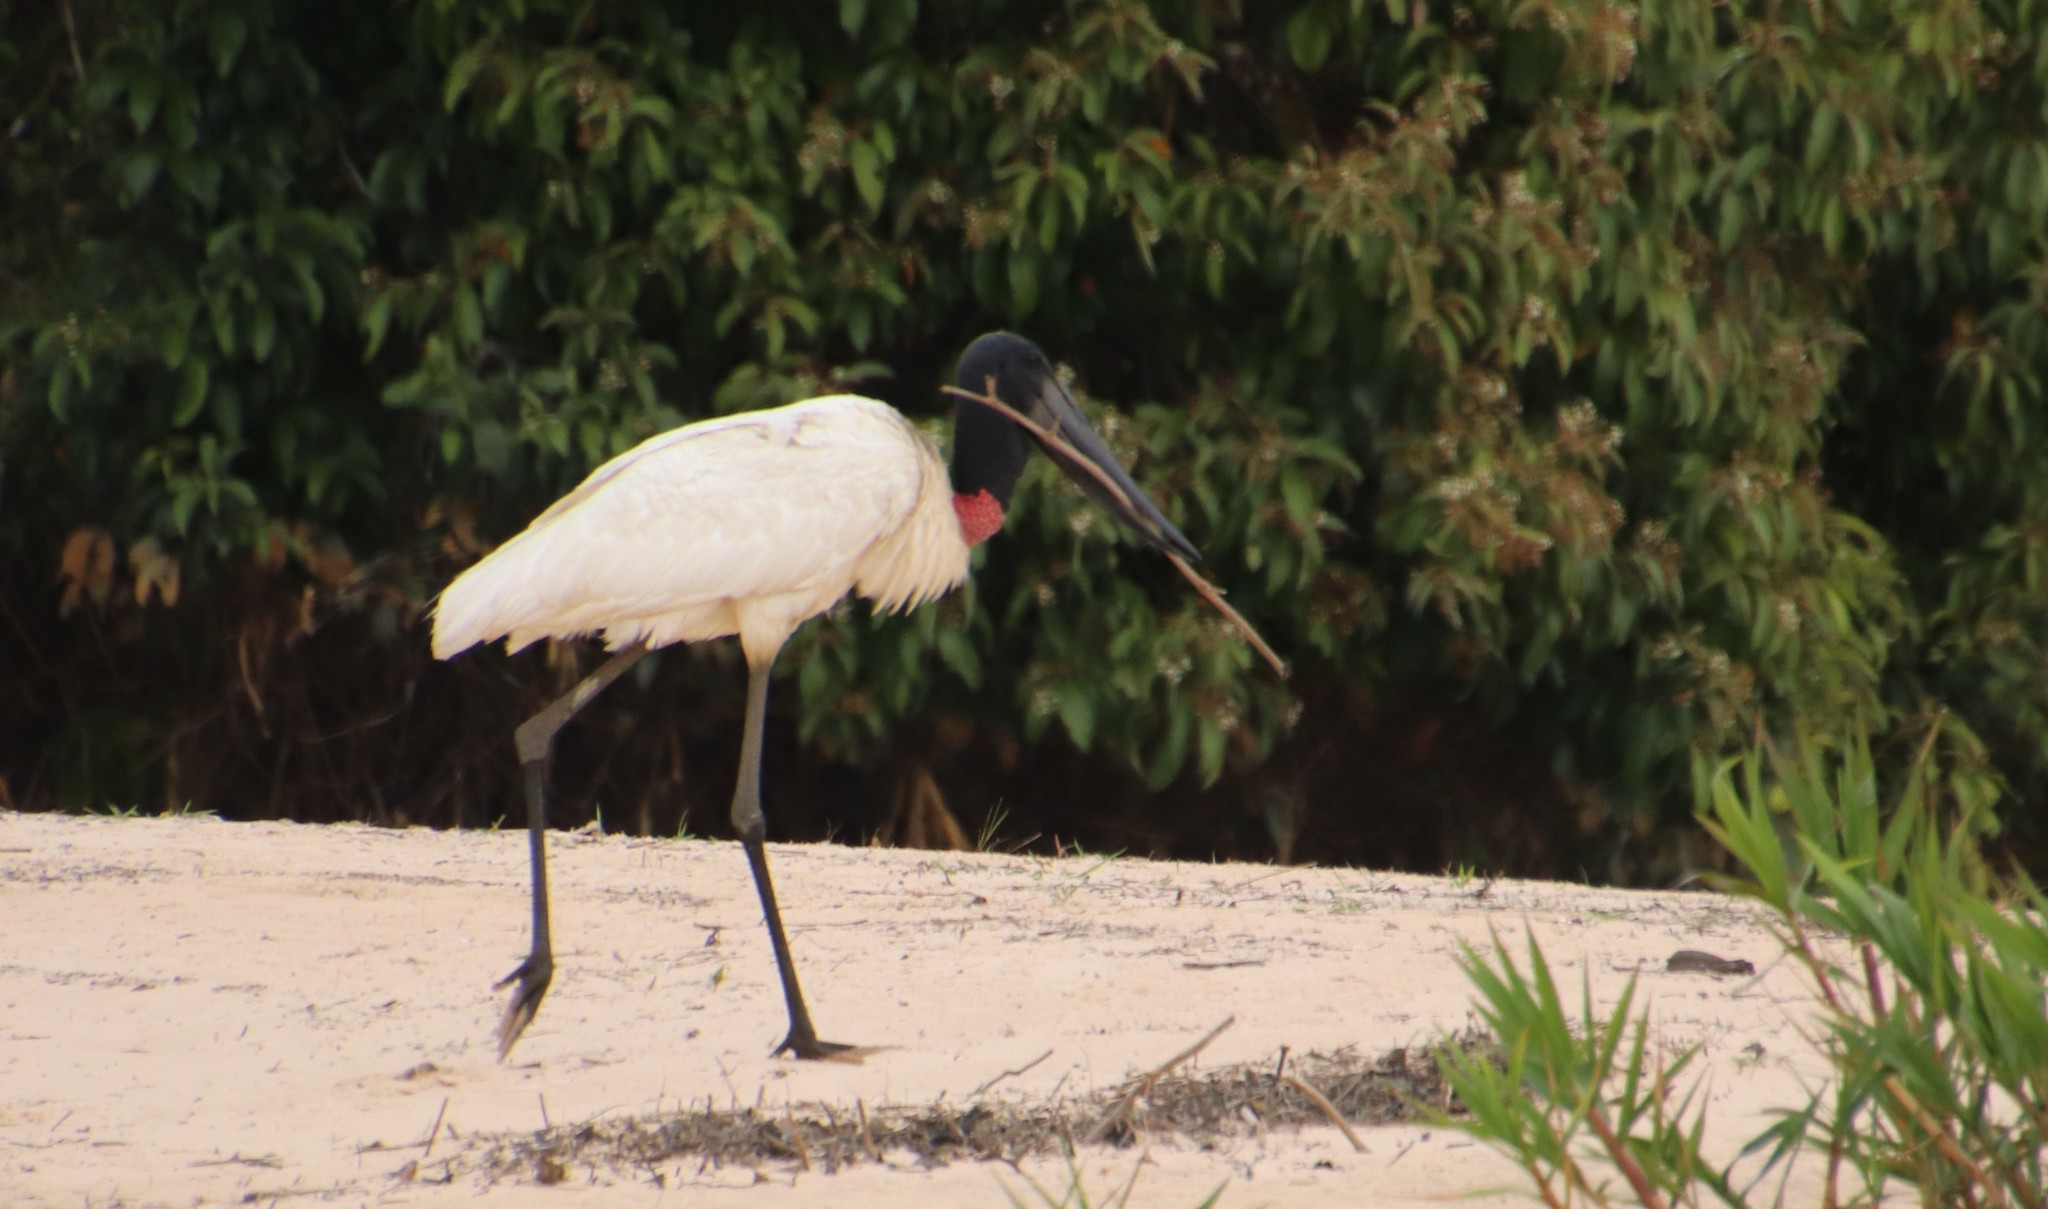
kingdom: Animalia
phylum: Chordata
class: Aves
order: Ciconiiformes
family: Ciconiidae
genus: Jabiru
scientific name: Jabiru mycteria
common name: Jabiru
